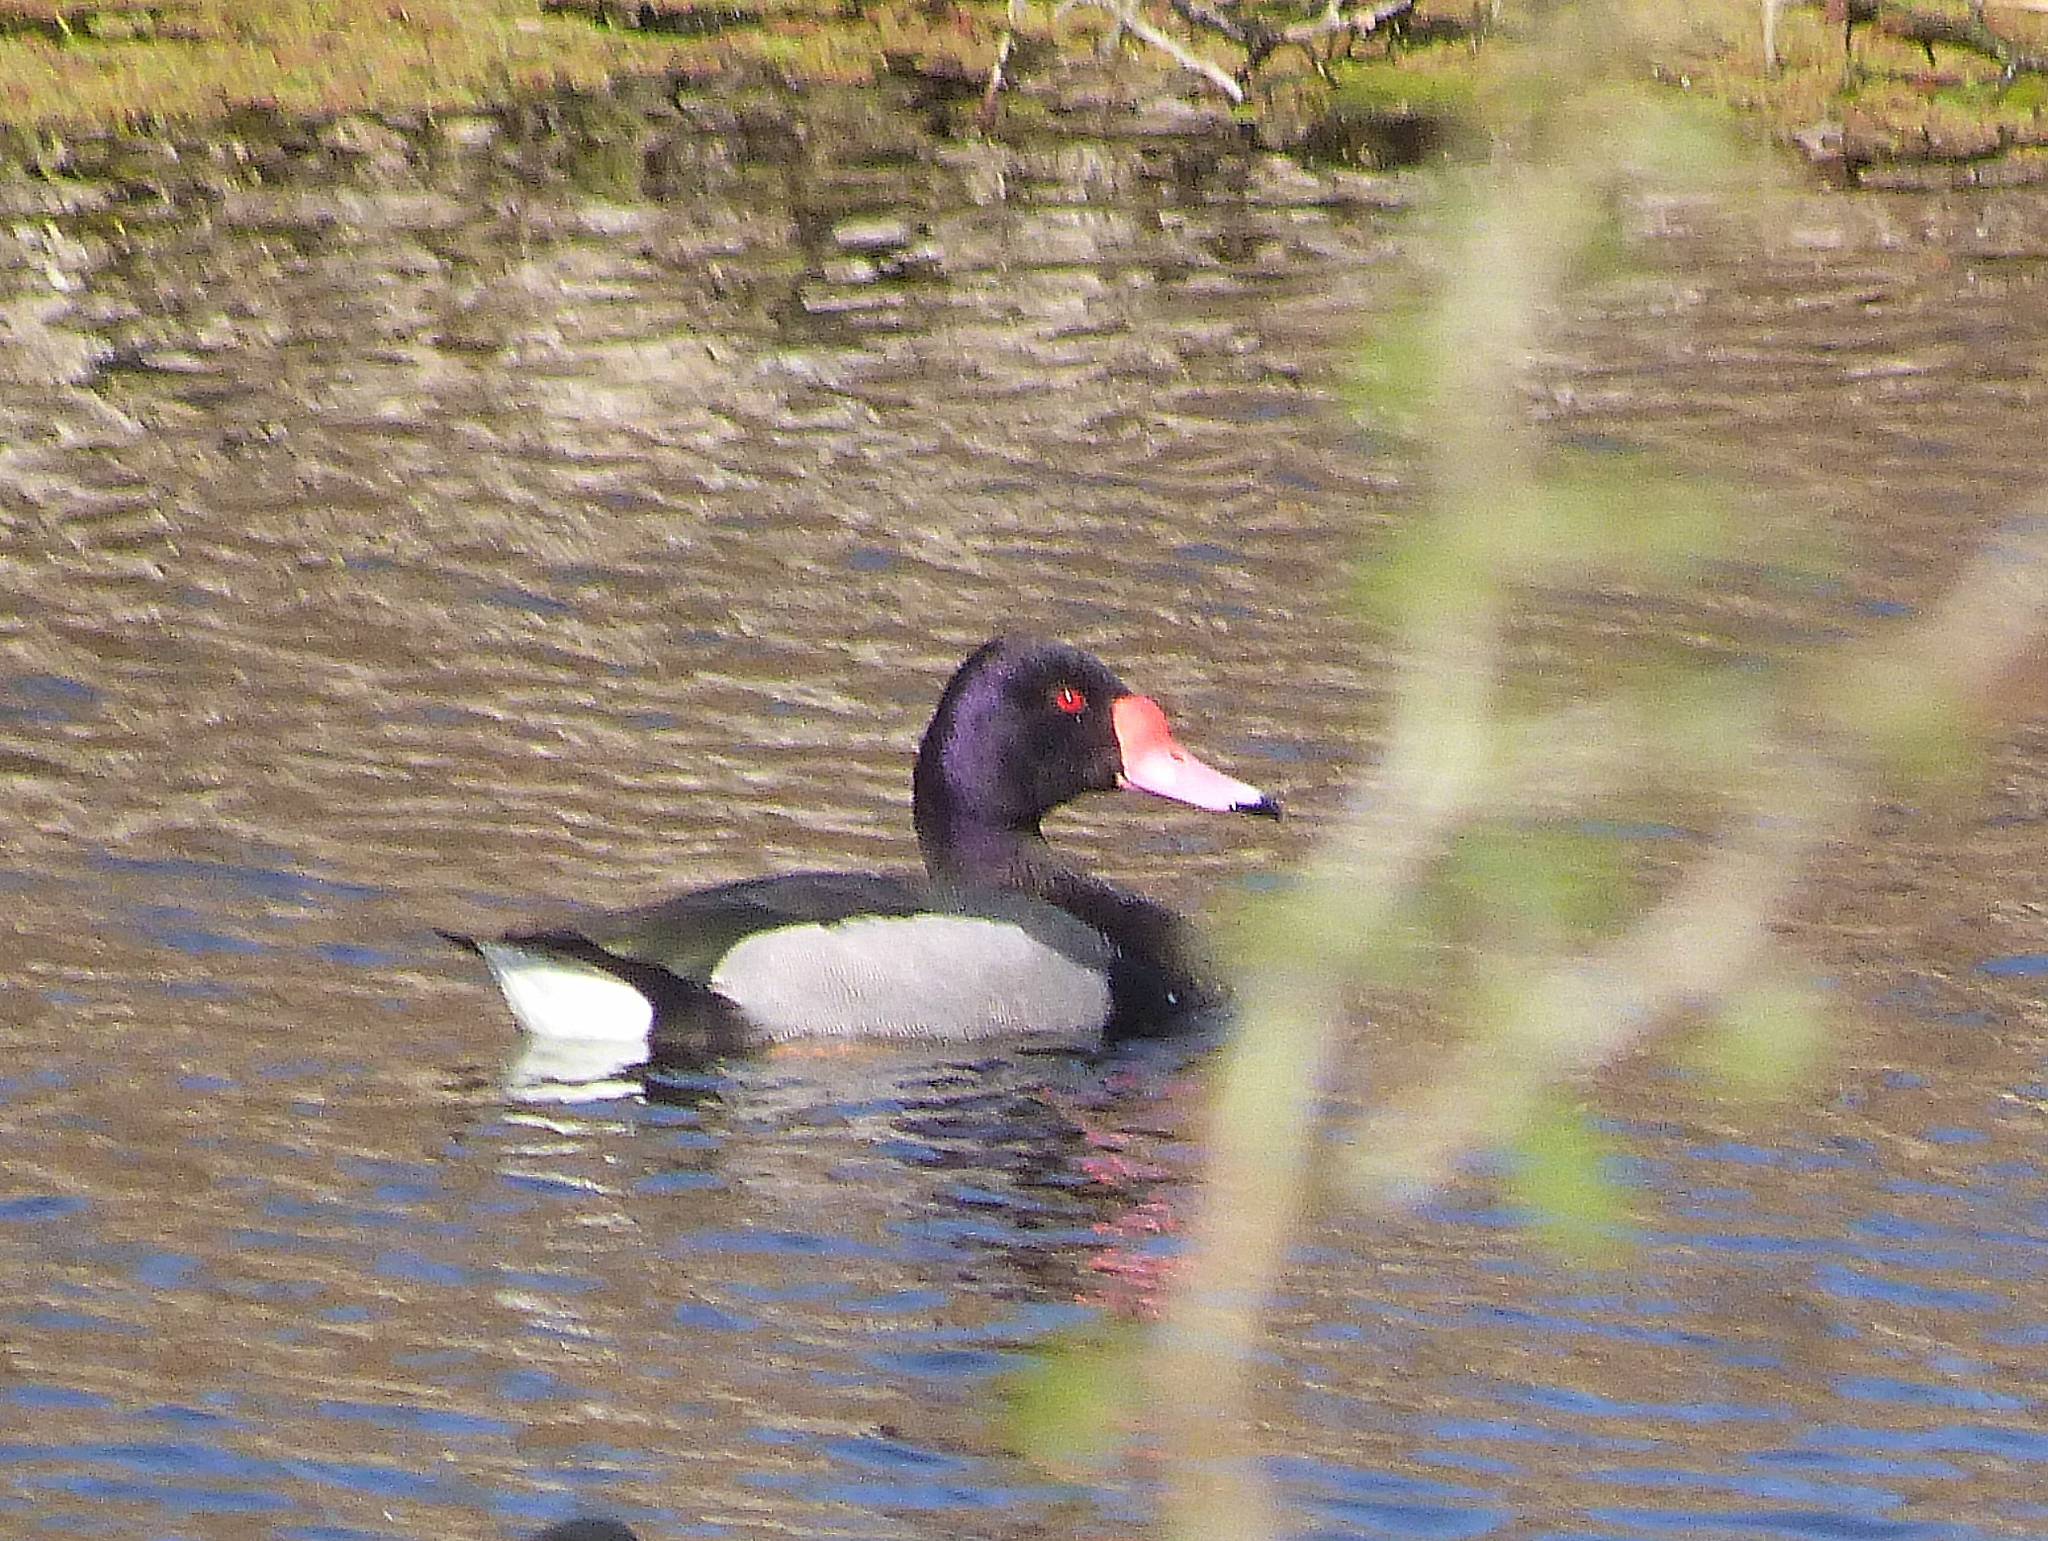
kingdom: Animalia
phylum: Chordata
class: Aves
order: Anseriformes
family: Anatidae
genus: Netta
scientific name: Netta peposaca
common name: Rosy-billed pochard
